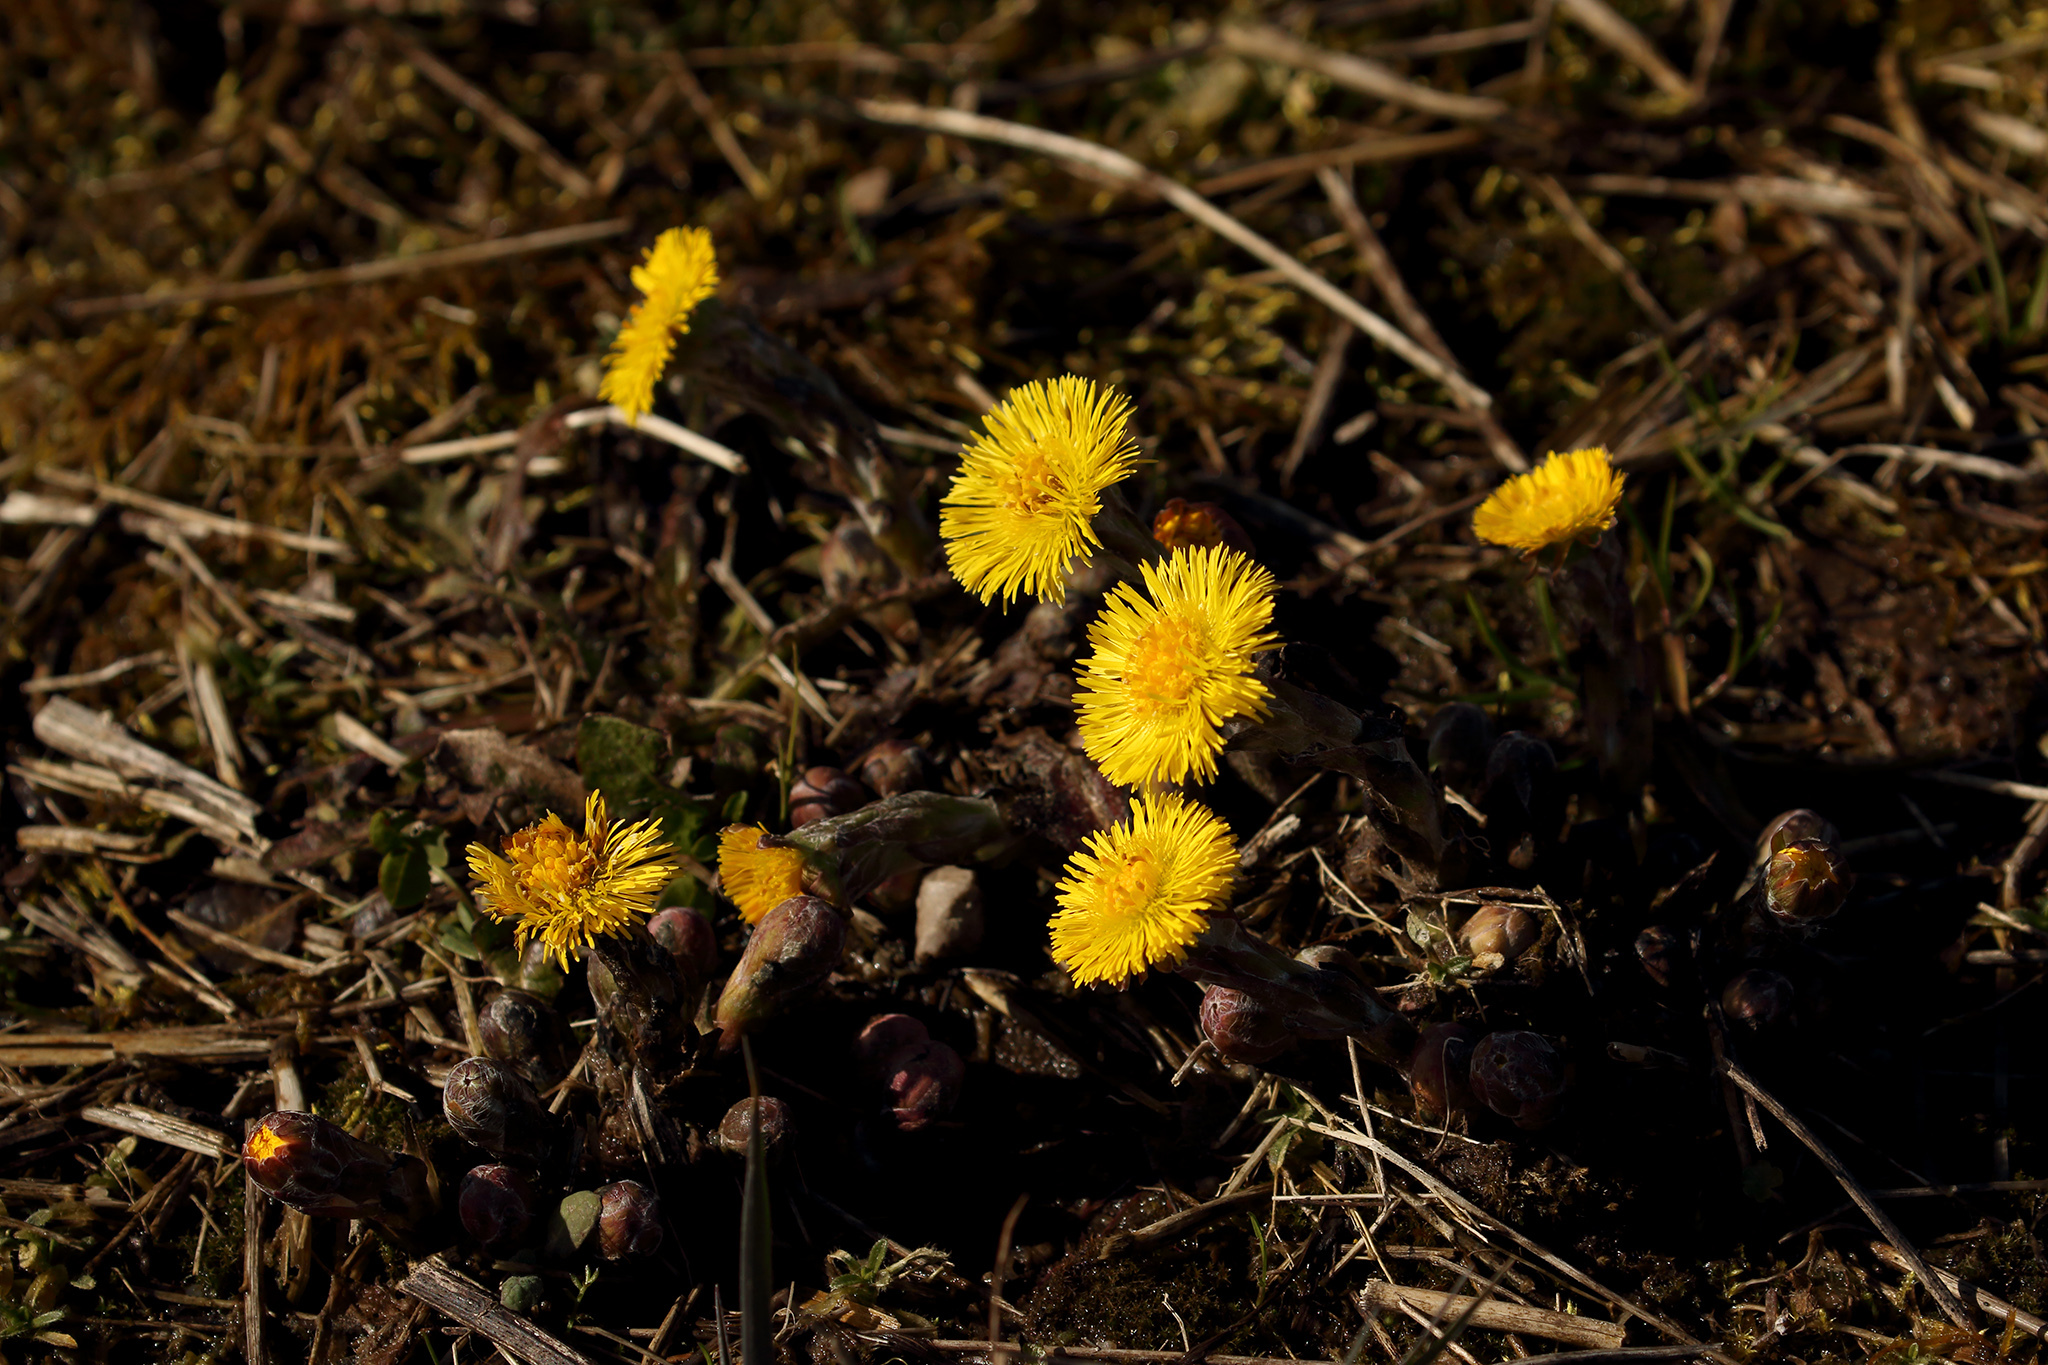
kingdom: Plantae
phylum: Tracheophyta
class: Magnoliopsida
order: Asterales
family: Asteraceae
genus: Tussilago
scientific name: Tussilago farfara
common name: Coltsfoot
